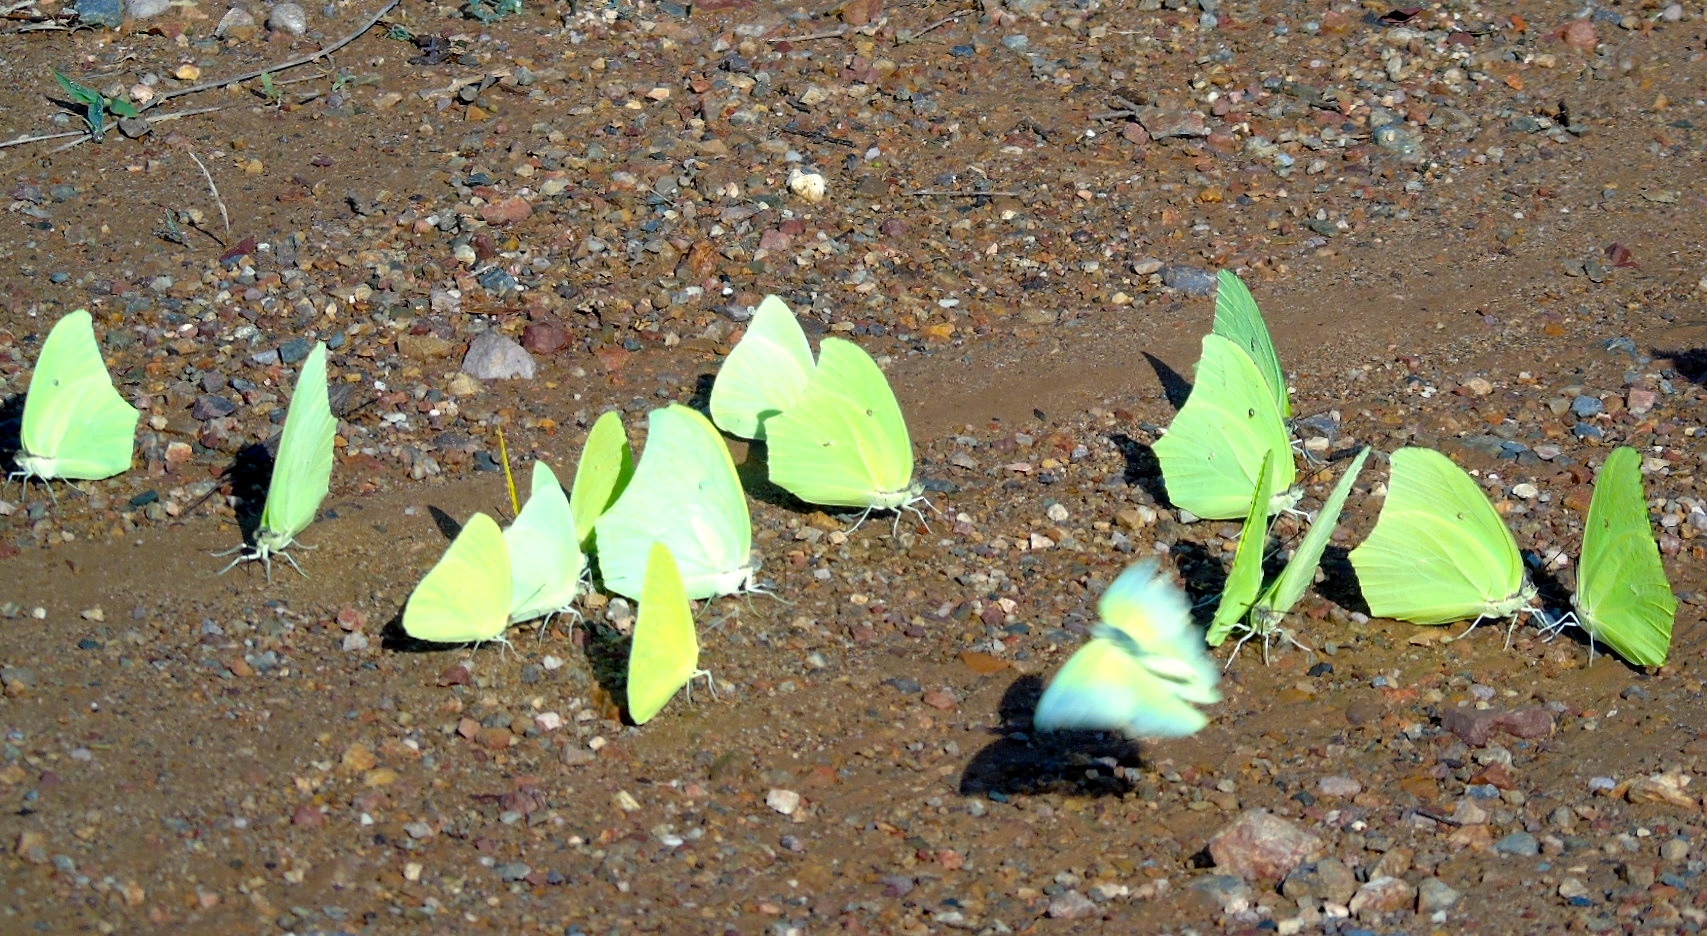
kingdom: Animalia
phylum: Arthropoda
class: Insecta
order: Lepidoptera
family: Pieridae
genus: Anteos
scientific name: Anteos maerula
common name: Angled sulphur
